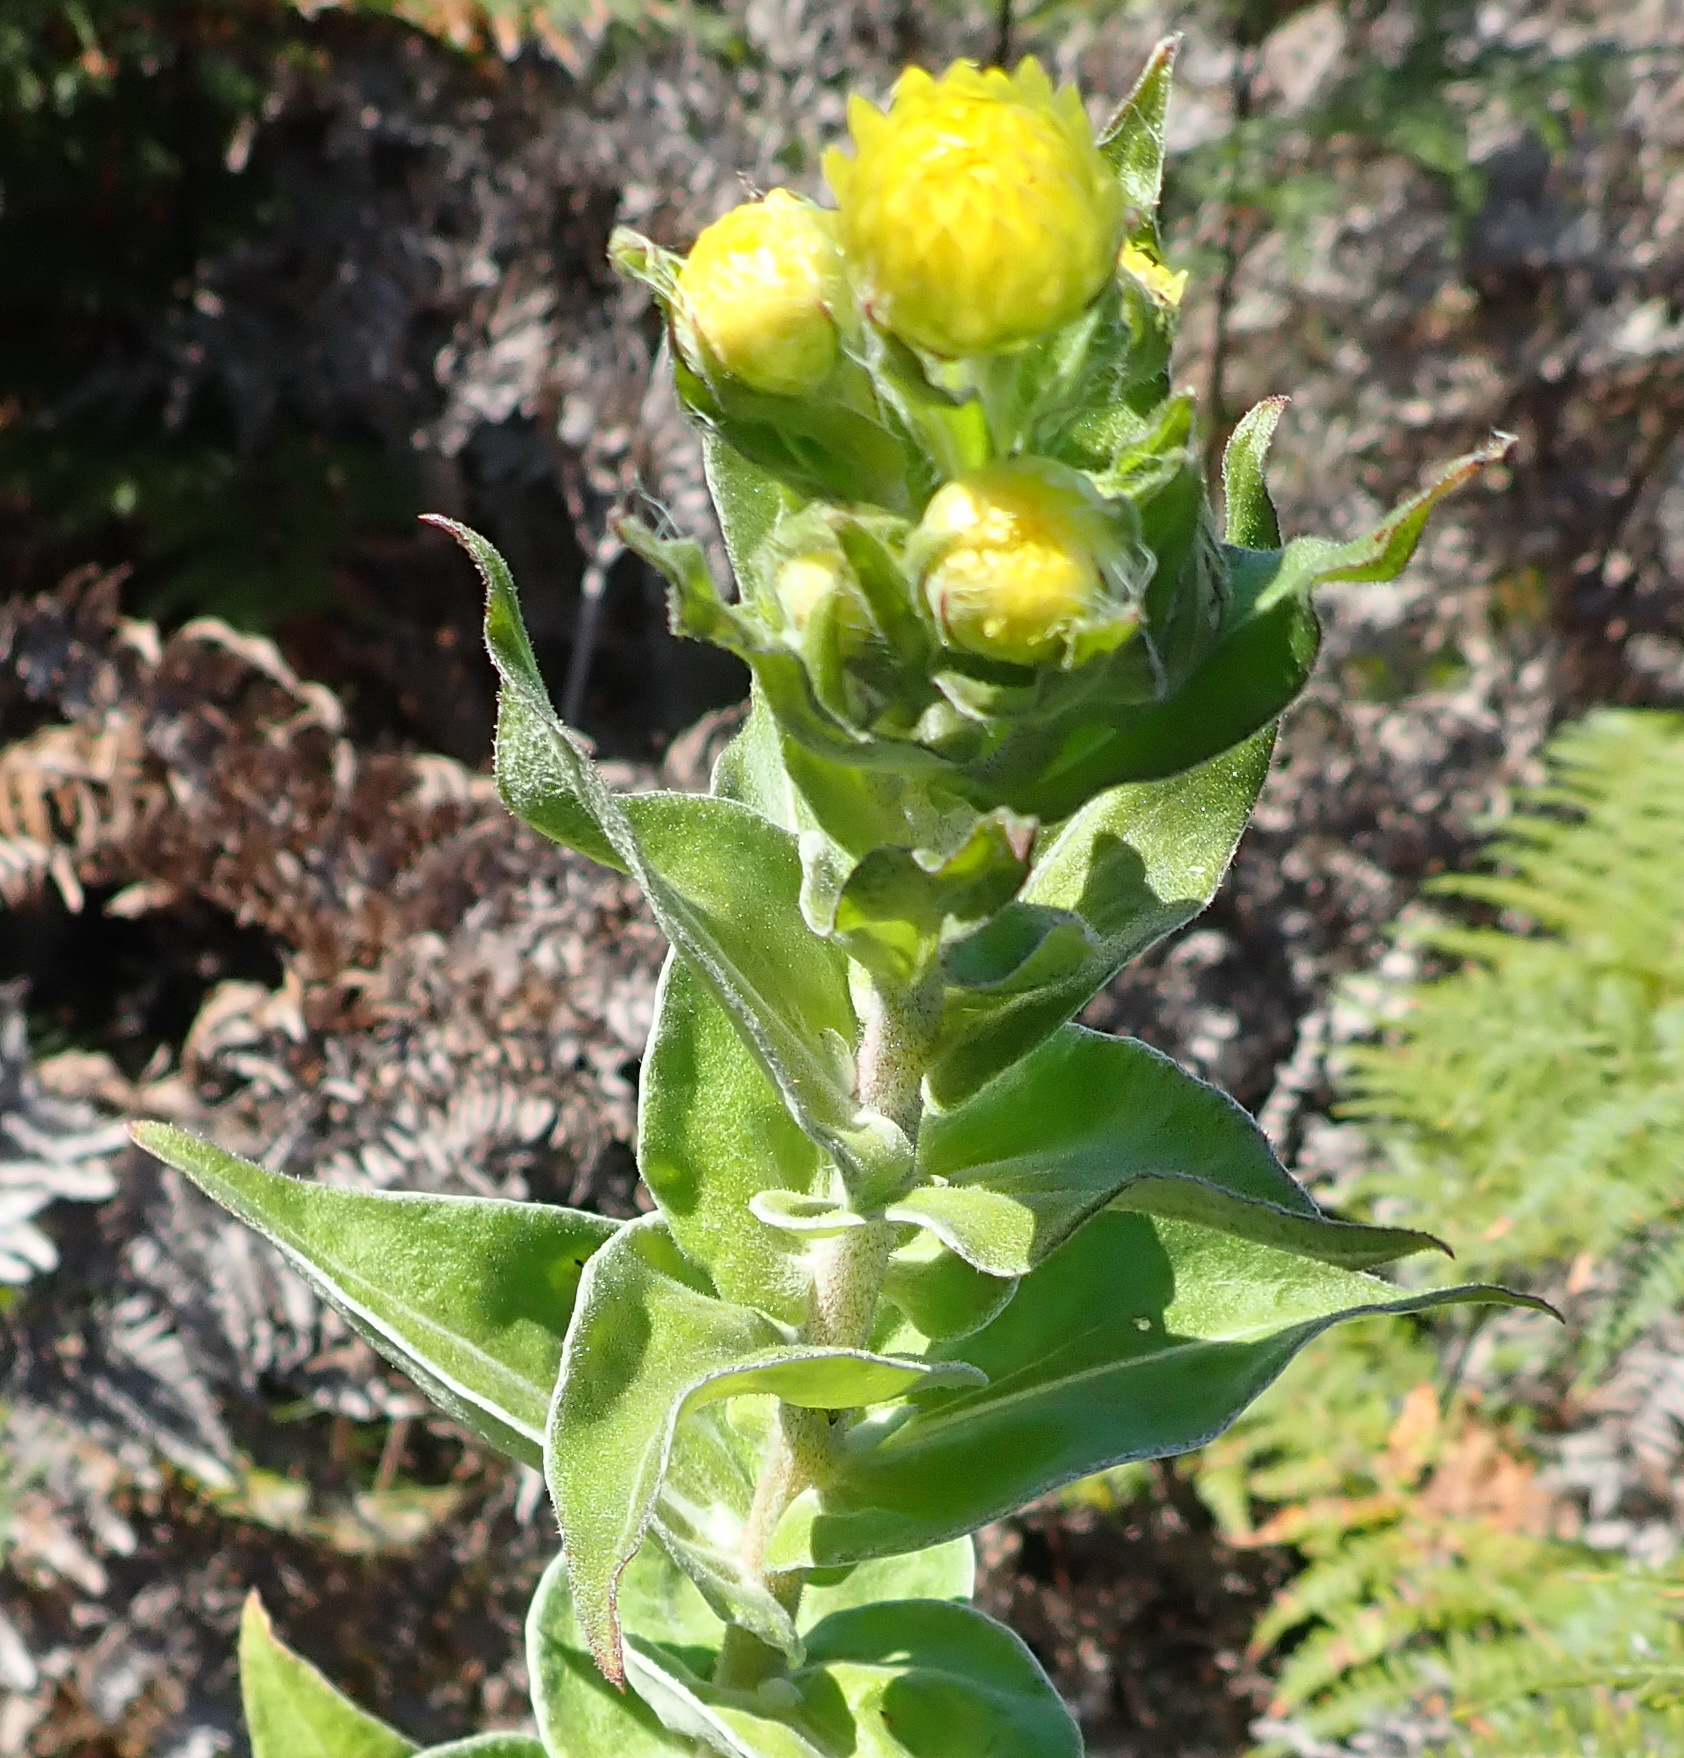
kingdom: Plantae
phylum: Tracheophyta
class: Magnoliopsida
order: Asterales
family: Asteraceae
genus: Helichrysum
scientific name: Helichrysum foetidum
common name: Stinking everlasting
